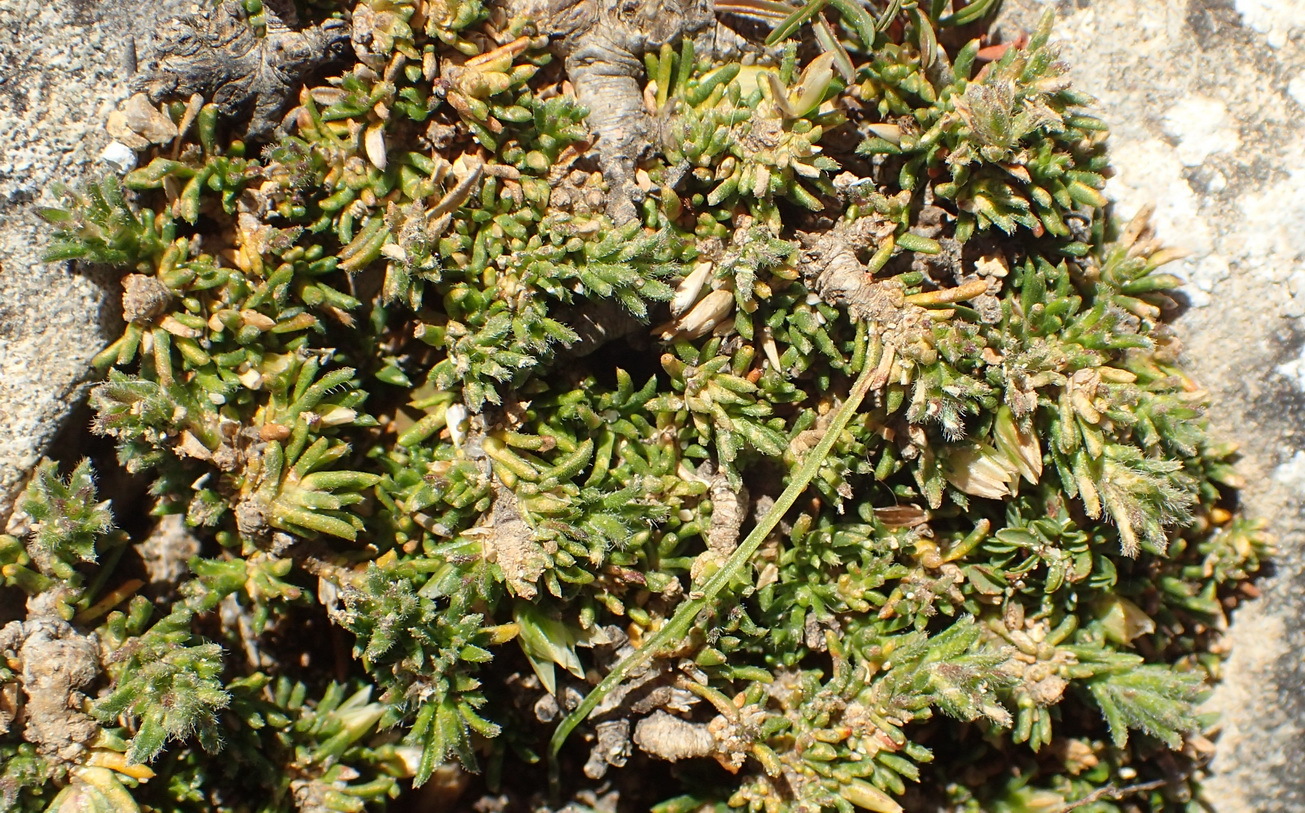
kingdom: Plantae
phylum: Tracheophyta
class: Magnoliopsida
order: Fabales
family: Polygalaceae
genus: Muraltia
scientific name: Muraltia pappeana
